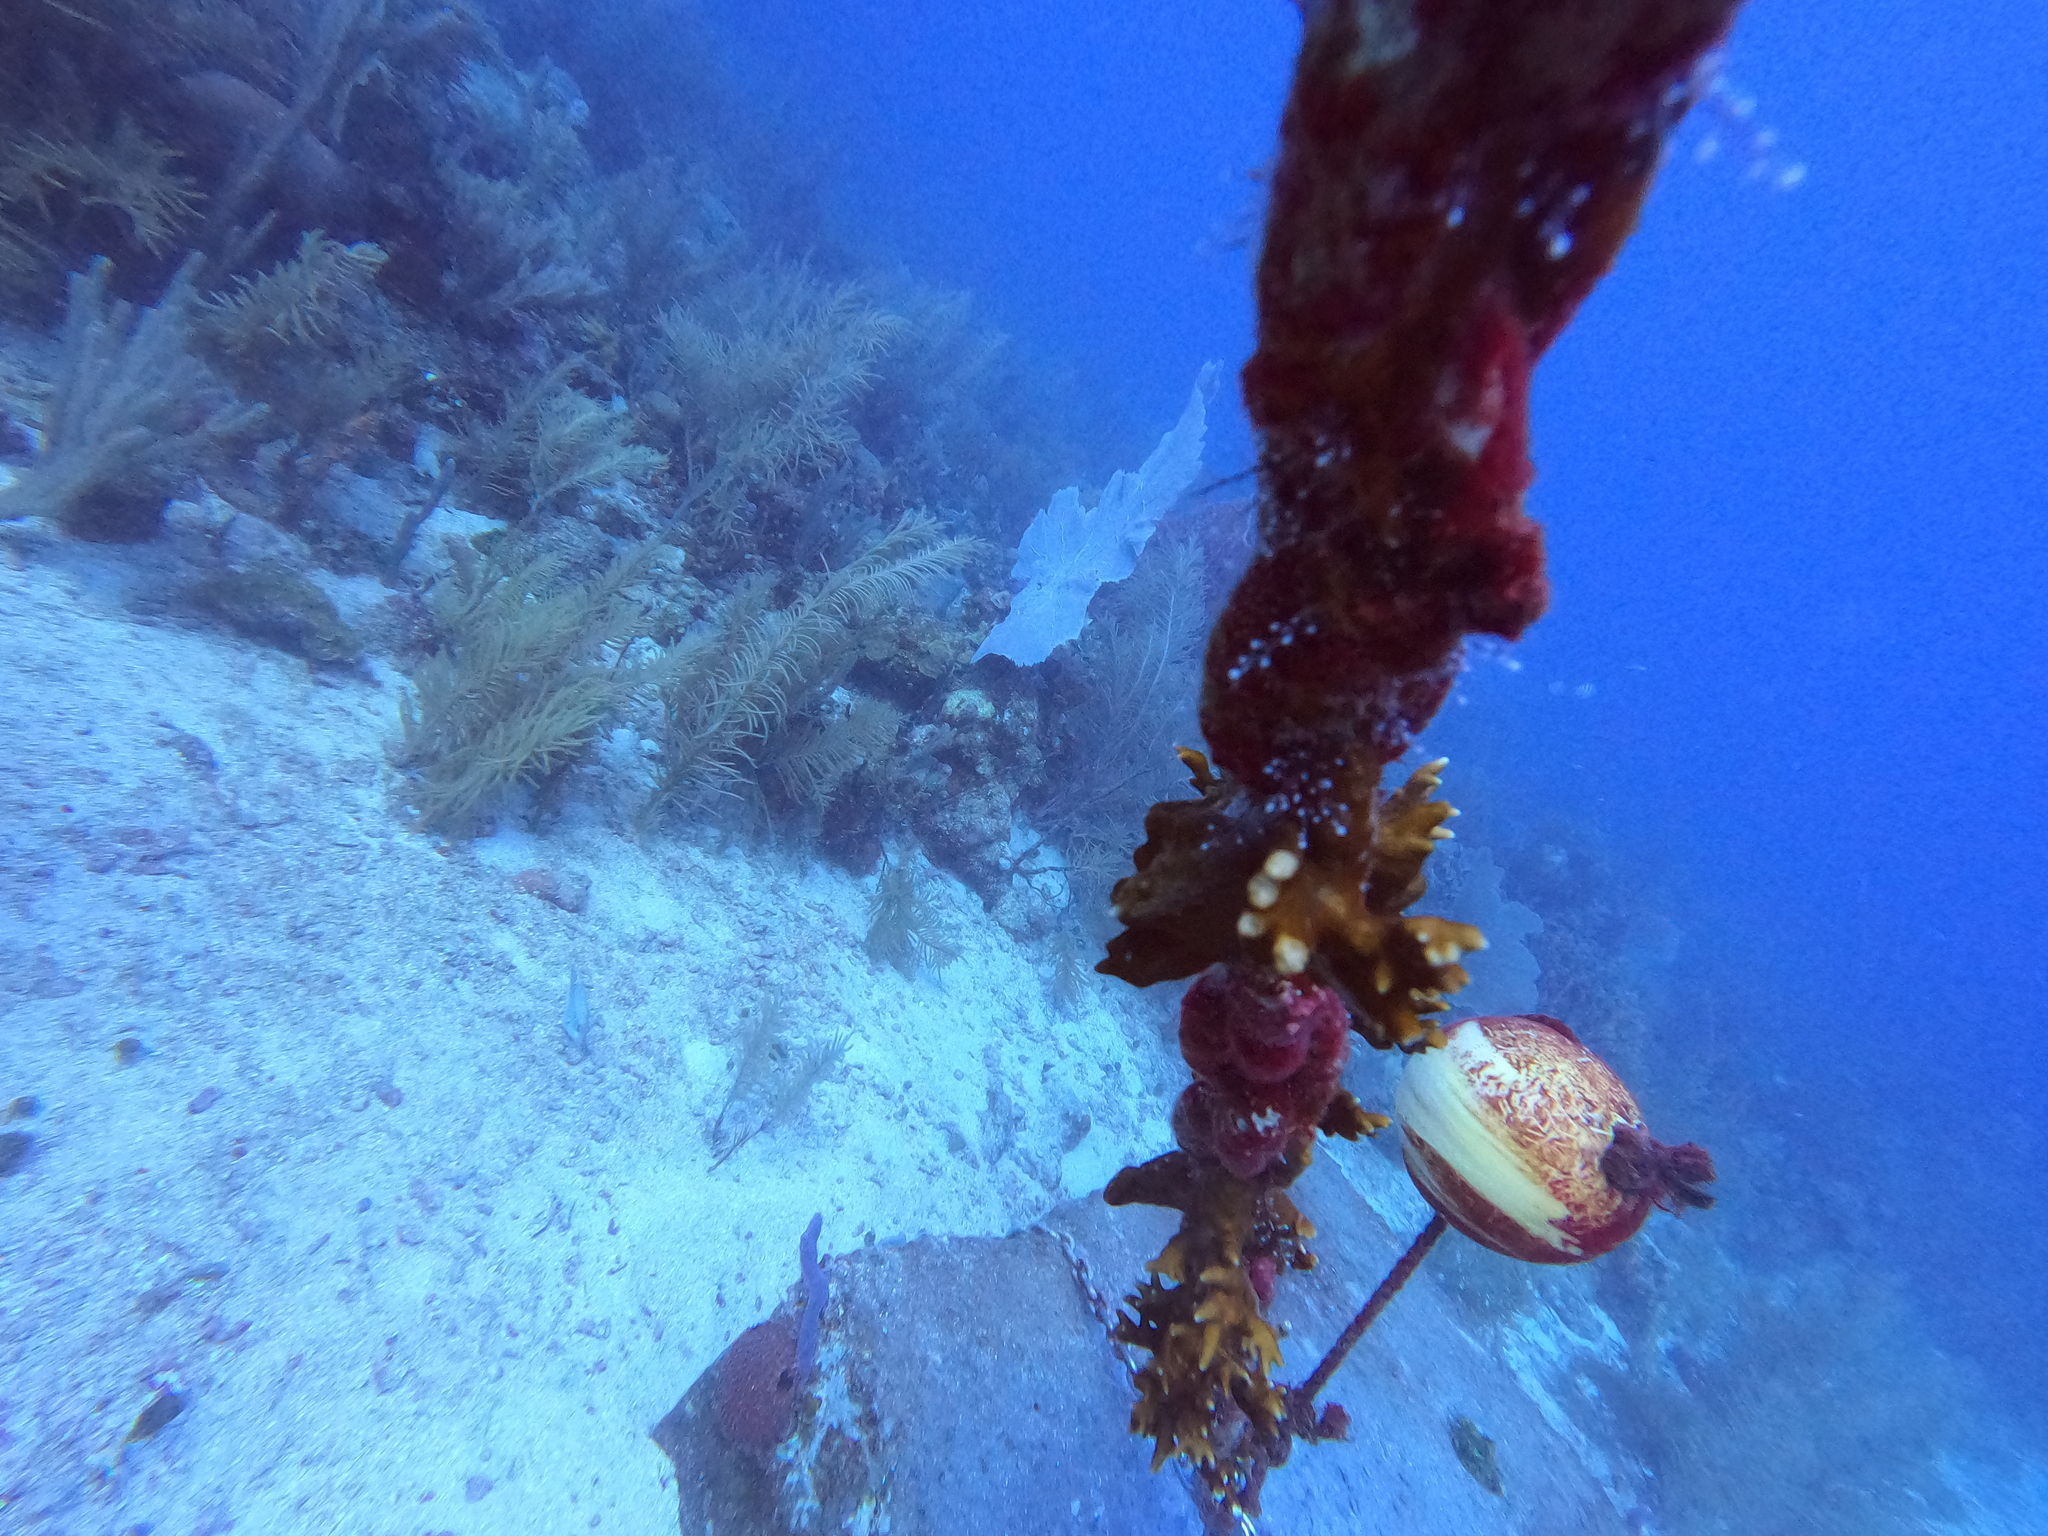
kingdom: Animalia
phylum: Cnidaria
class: Hydrozoa
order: Anthoathecata
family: Milleporidae
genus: Millepora
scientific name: Millepora alcicornis
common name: Branching fire coral
